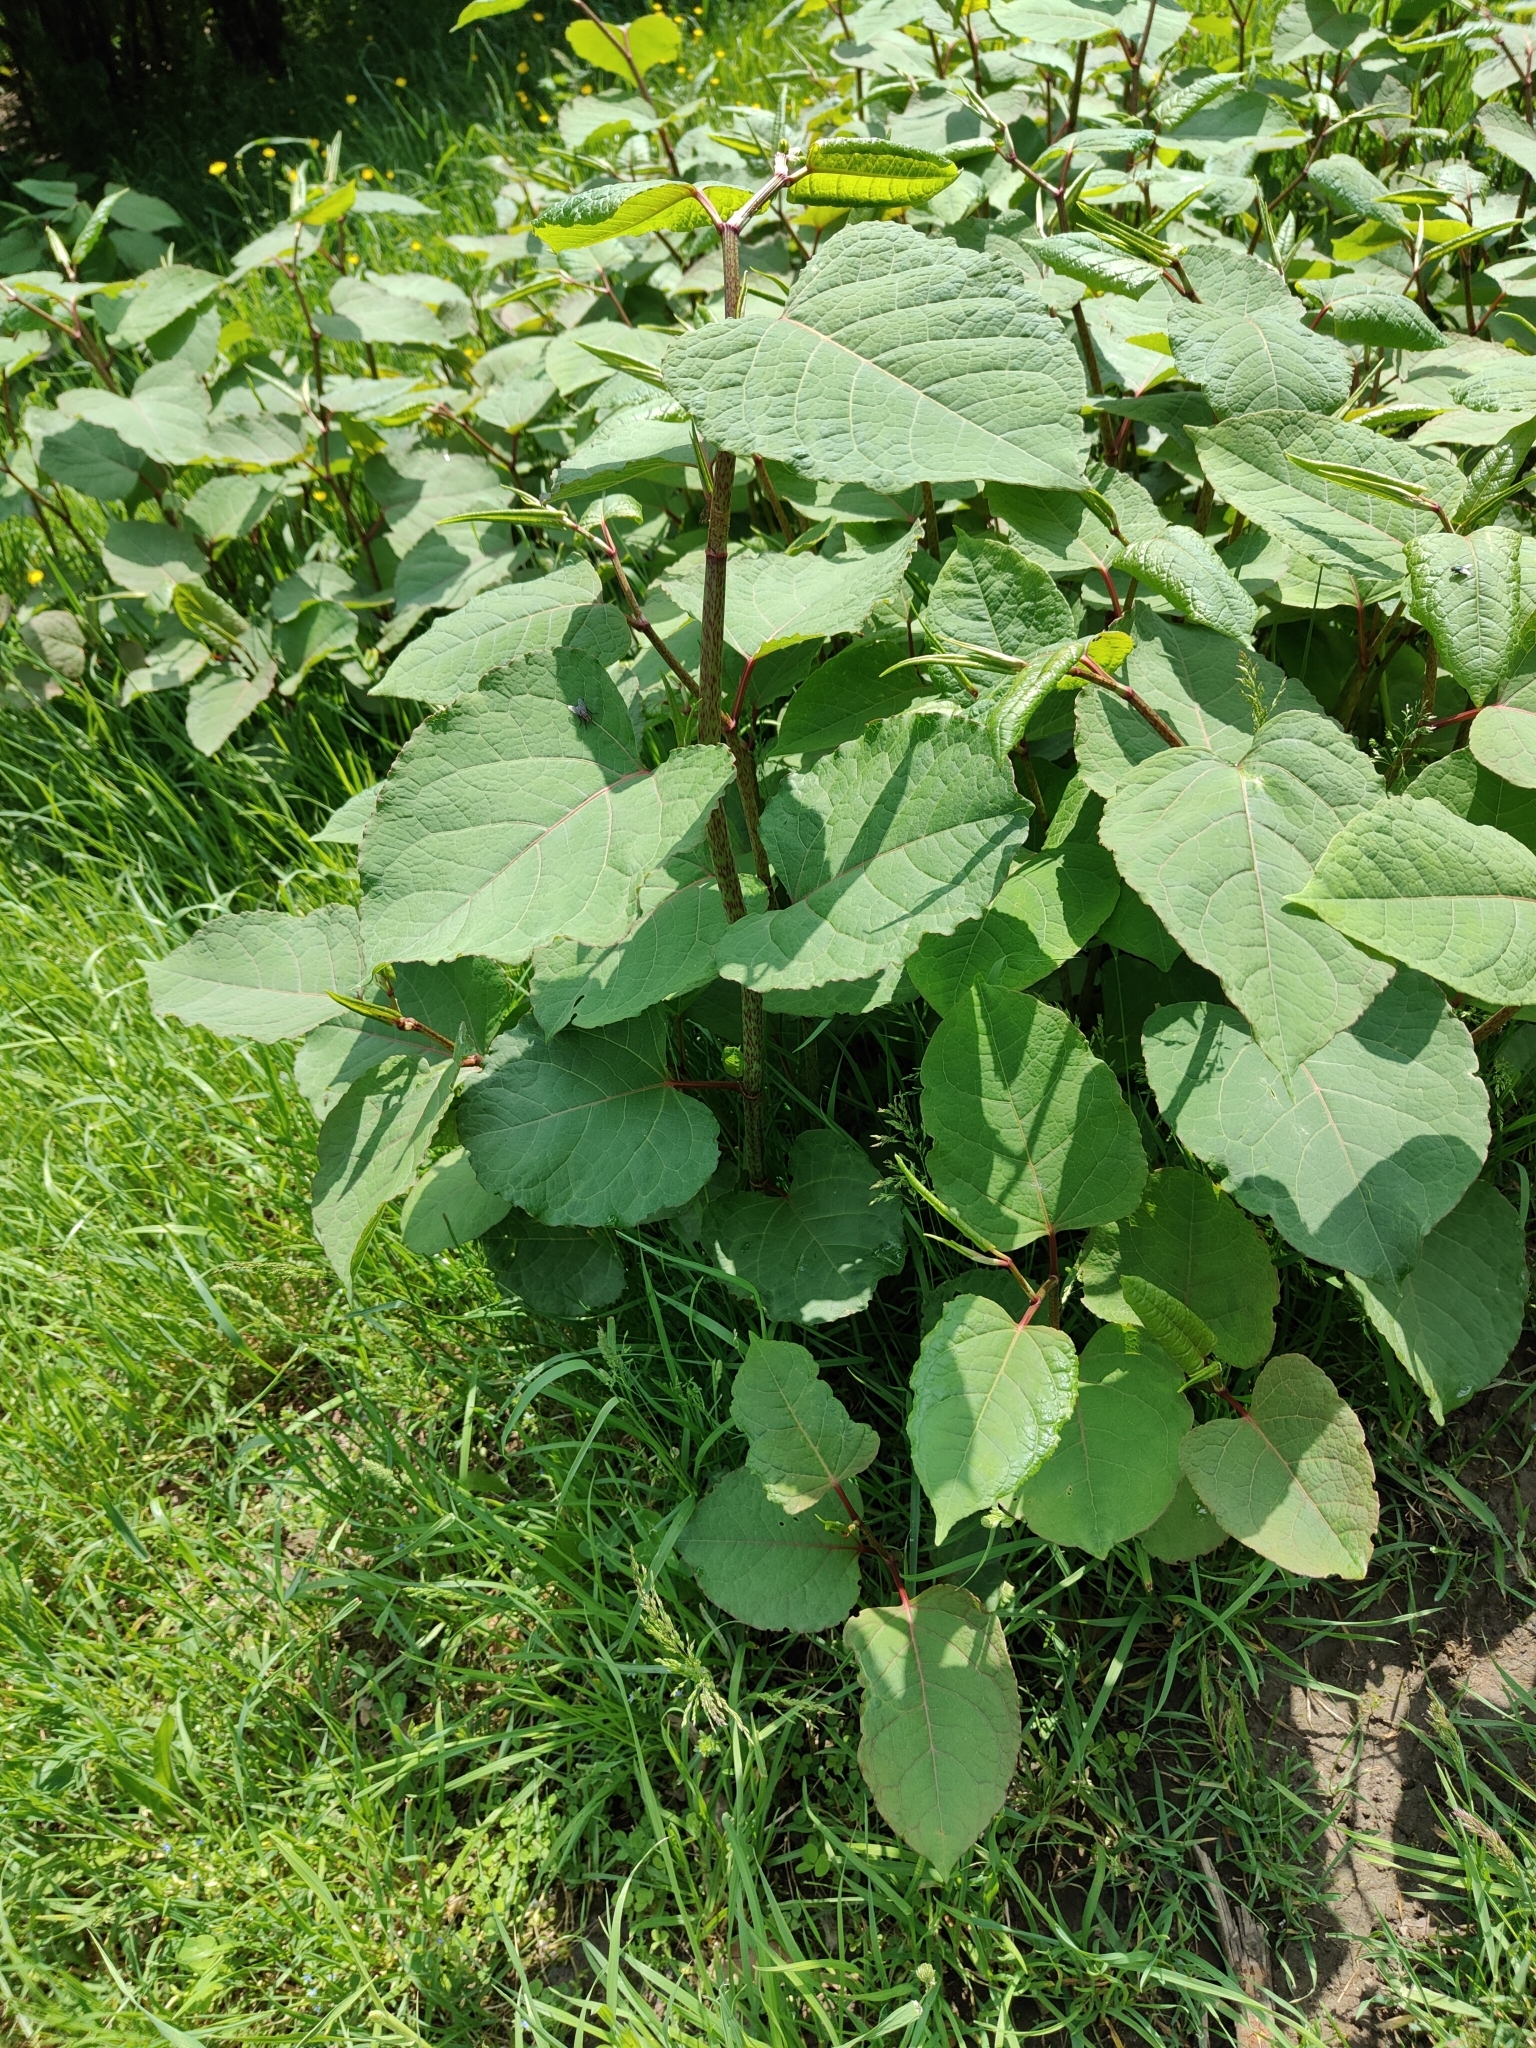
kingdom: Plantae
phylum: Tracheophyta
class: Magnoliopsida
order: Caryophyllales
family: Polygonaceae
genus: Reynoutria
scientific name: Reynoutria bohemica
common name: Bohemian knotweed
